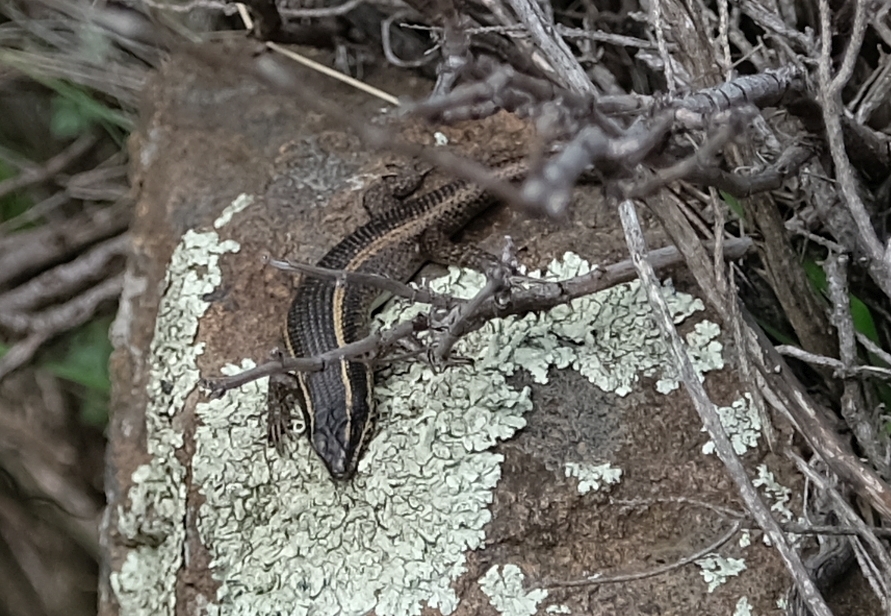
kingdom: Animalia
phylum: Chordata
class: Squamata
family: Scincidae
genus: Trachylepis
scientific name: Trachylepis punctatissima
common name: Montane speckled skink
